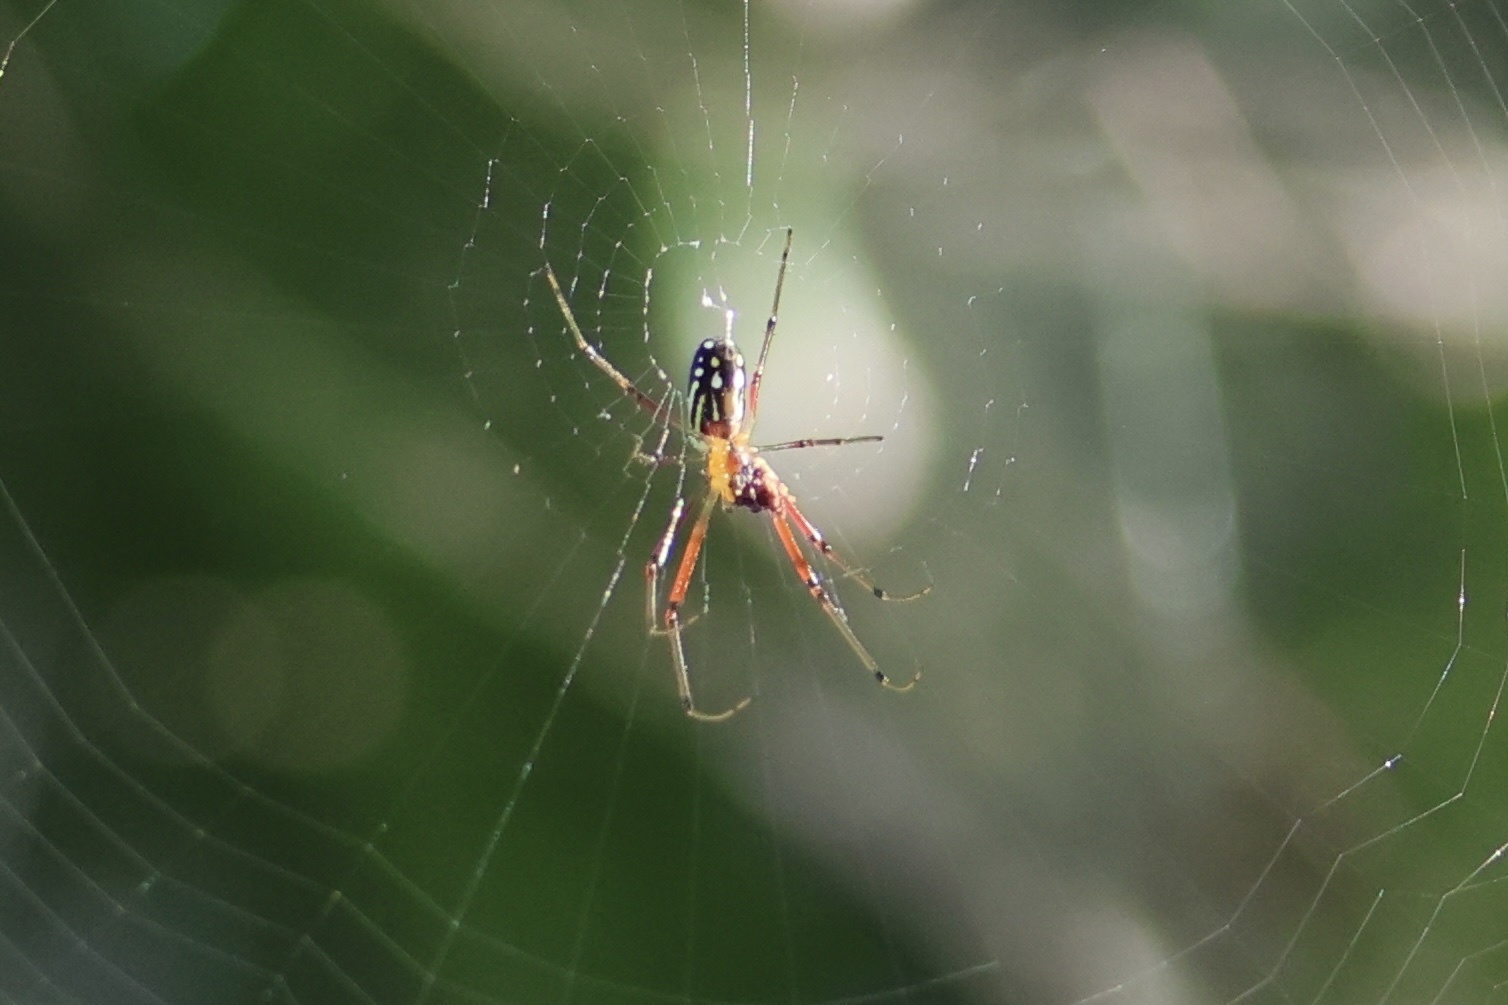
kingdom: Animalia
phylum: Arthropoda
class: Arachnida
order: Araneae
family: Tetragnathidae
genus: Leucauge
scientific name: Leucauge argyra
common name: Longjawed orb weavers
